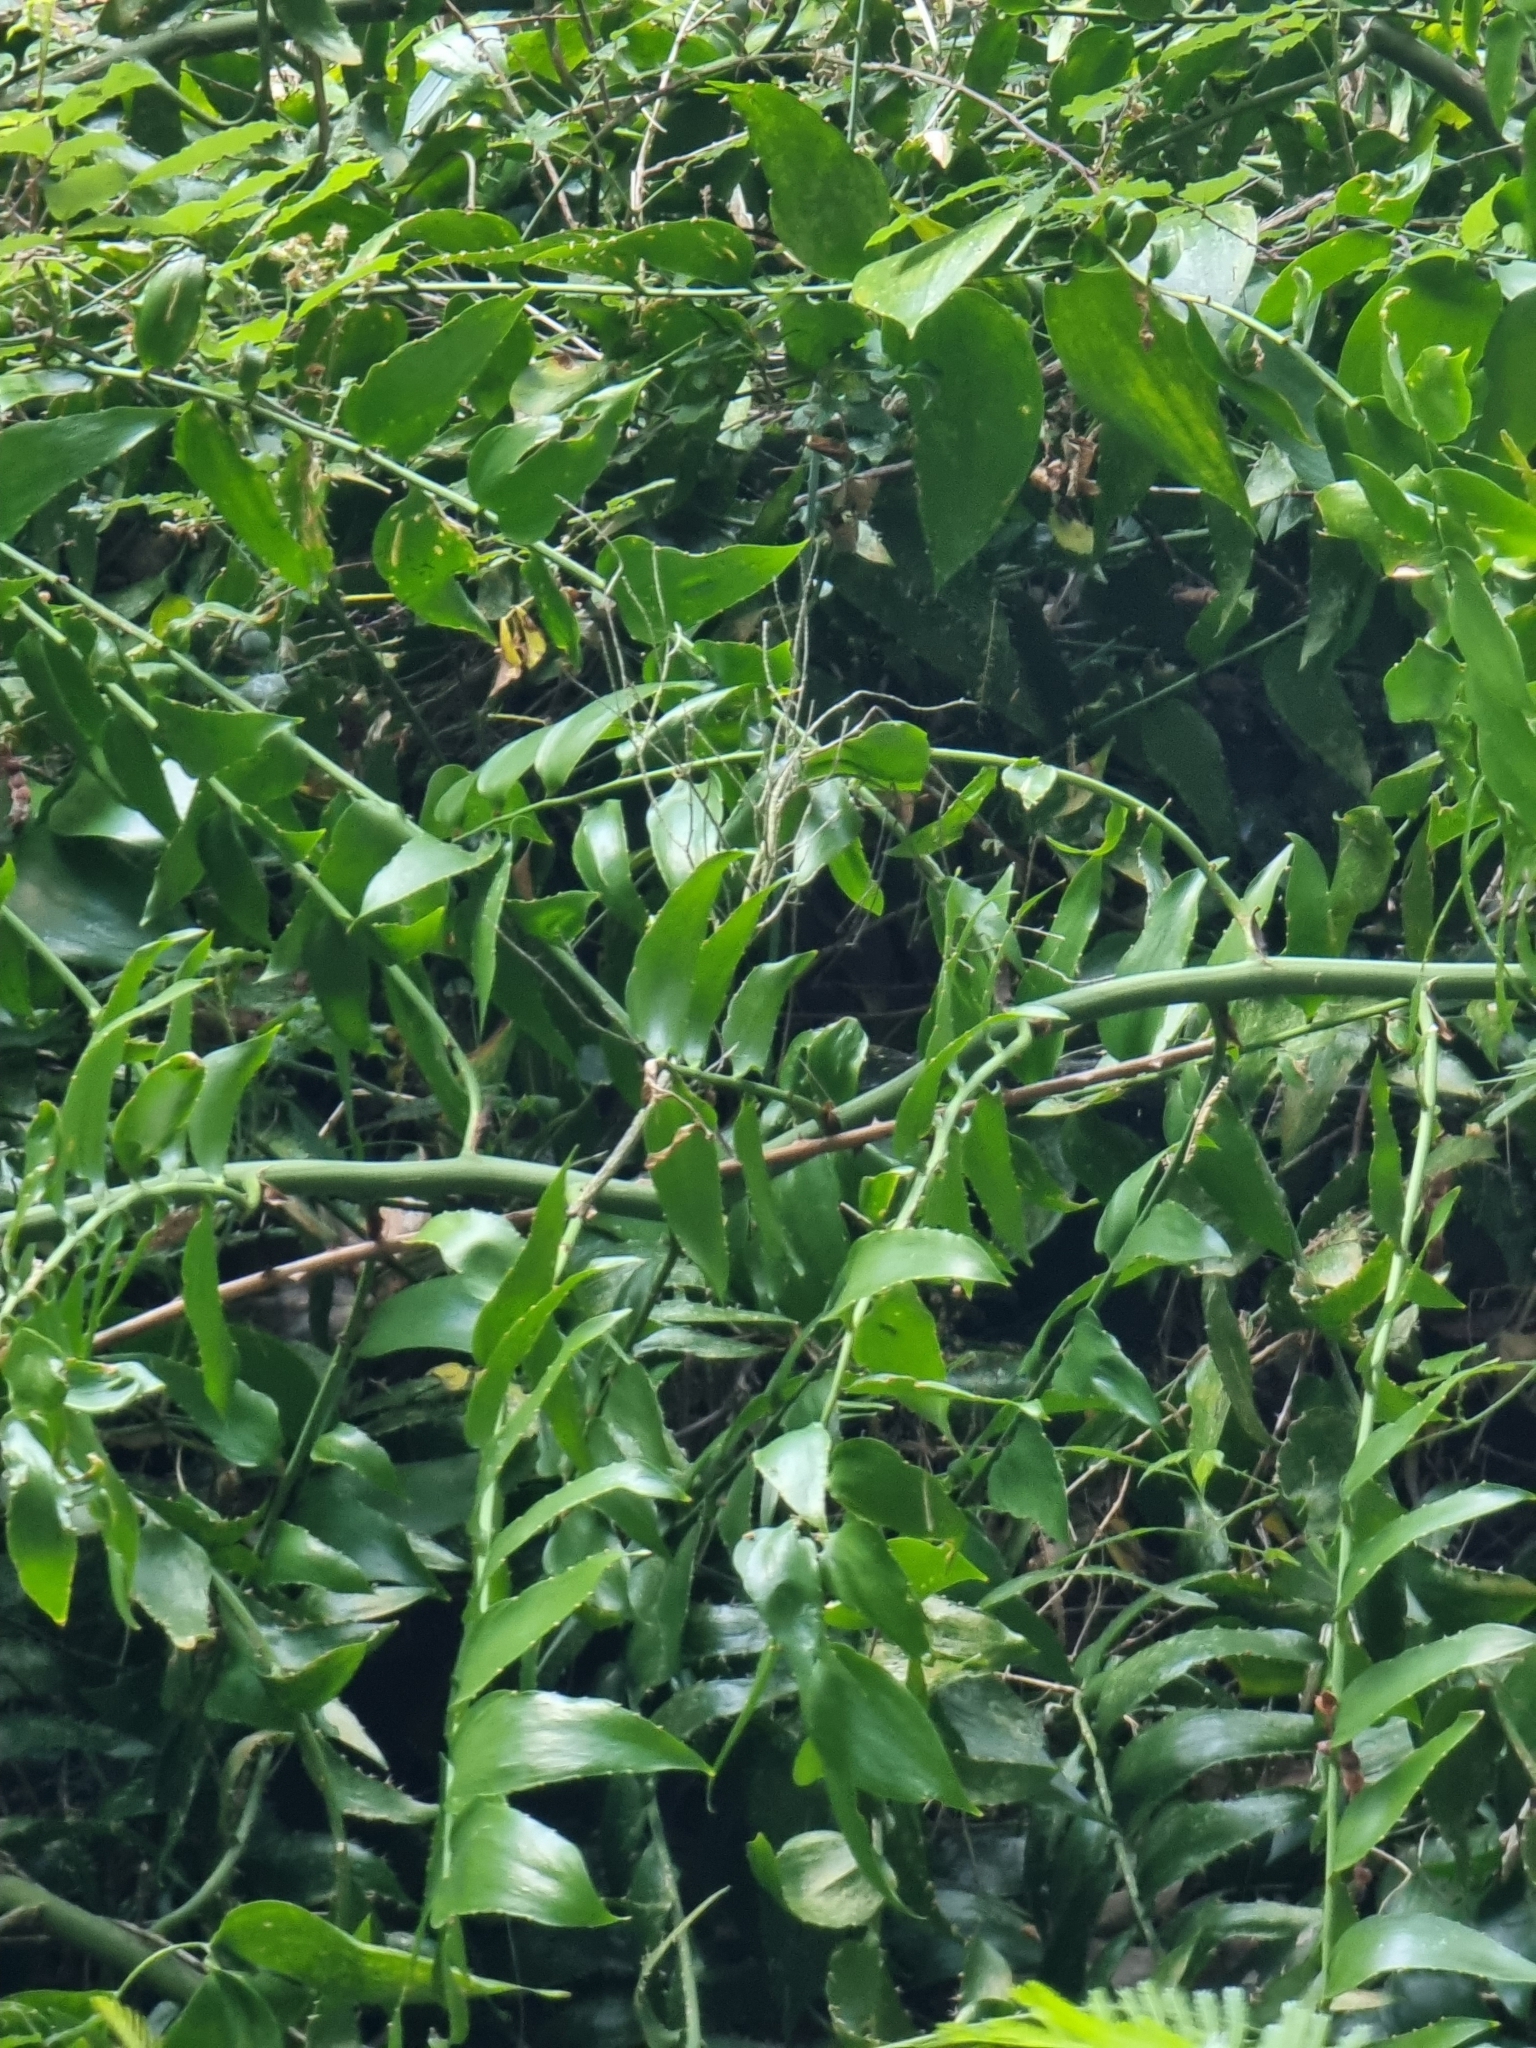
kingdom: Plantae
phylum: Tracheophyta
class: Liliopsida
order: Asparagales
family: Asparagaceae
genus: Semele
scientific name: Semele androgyna
